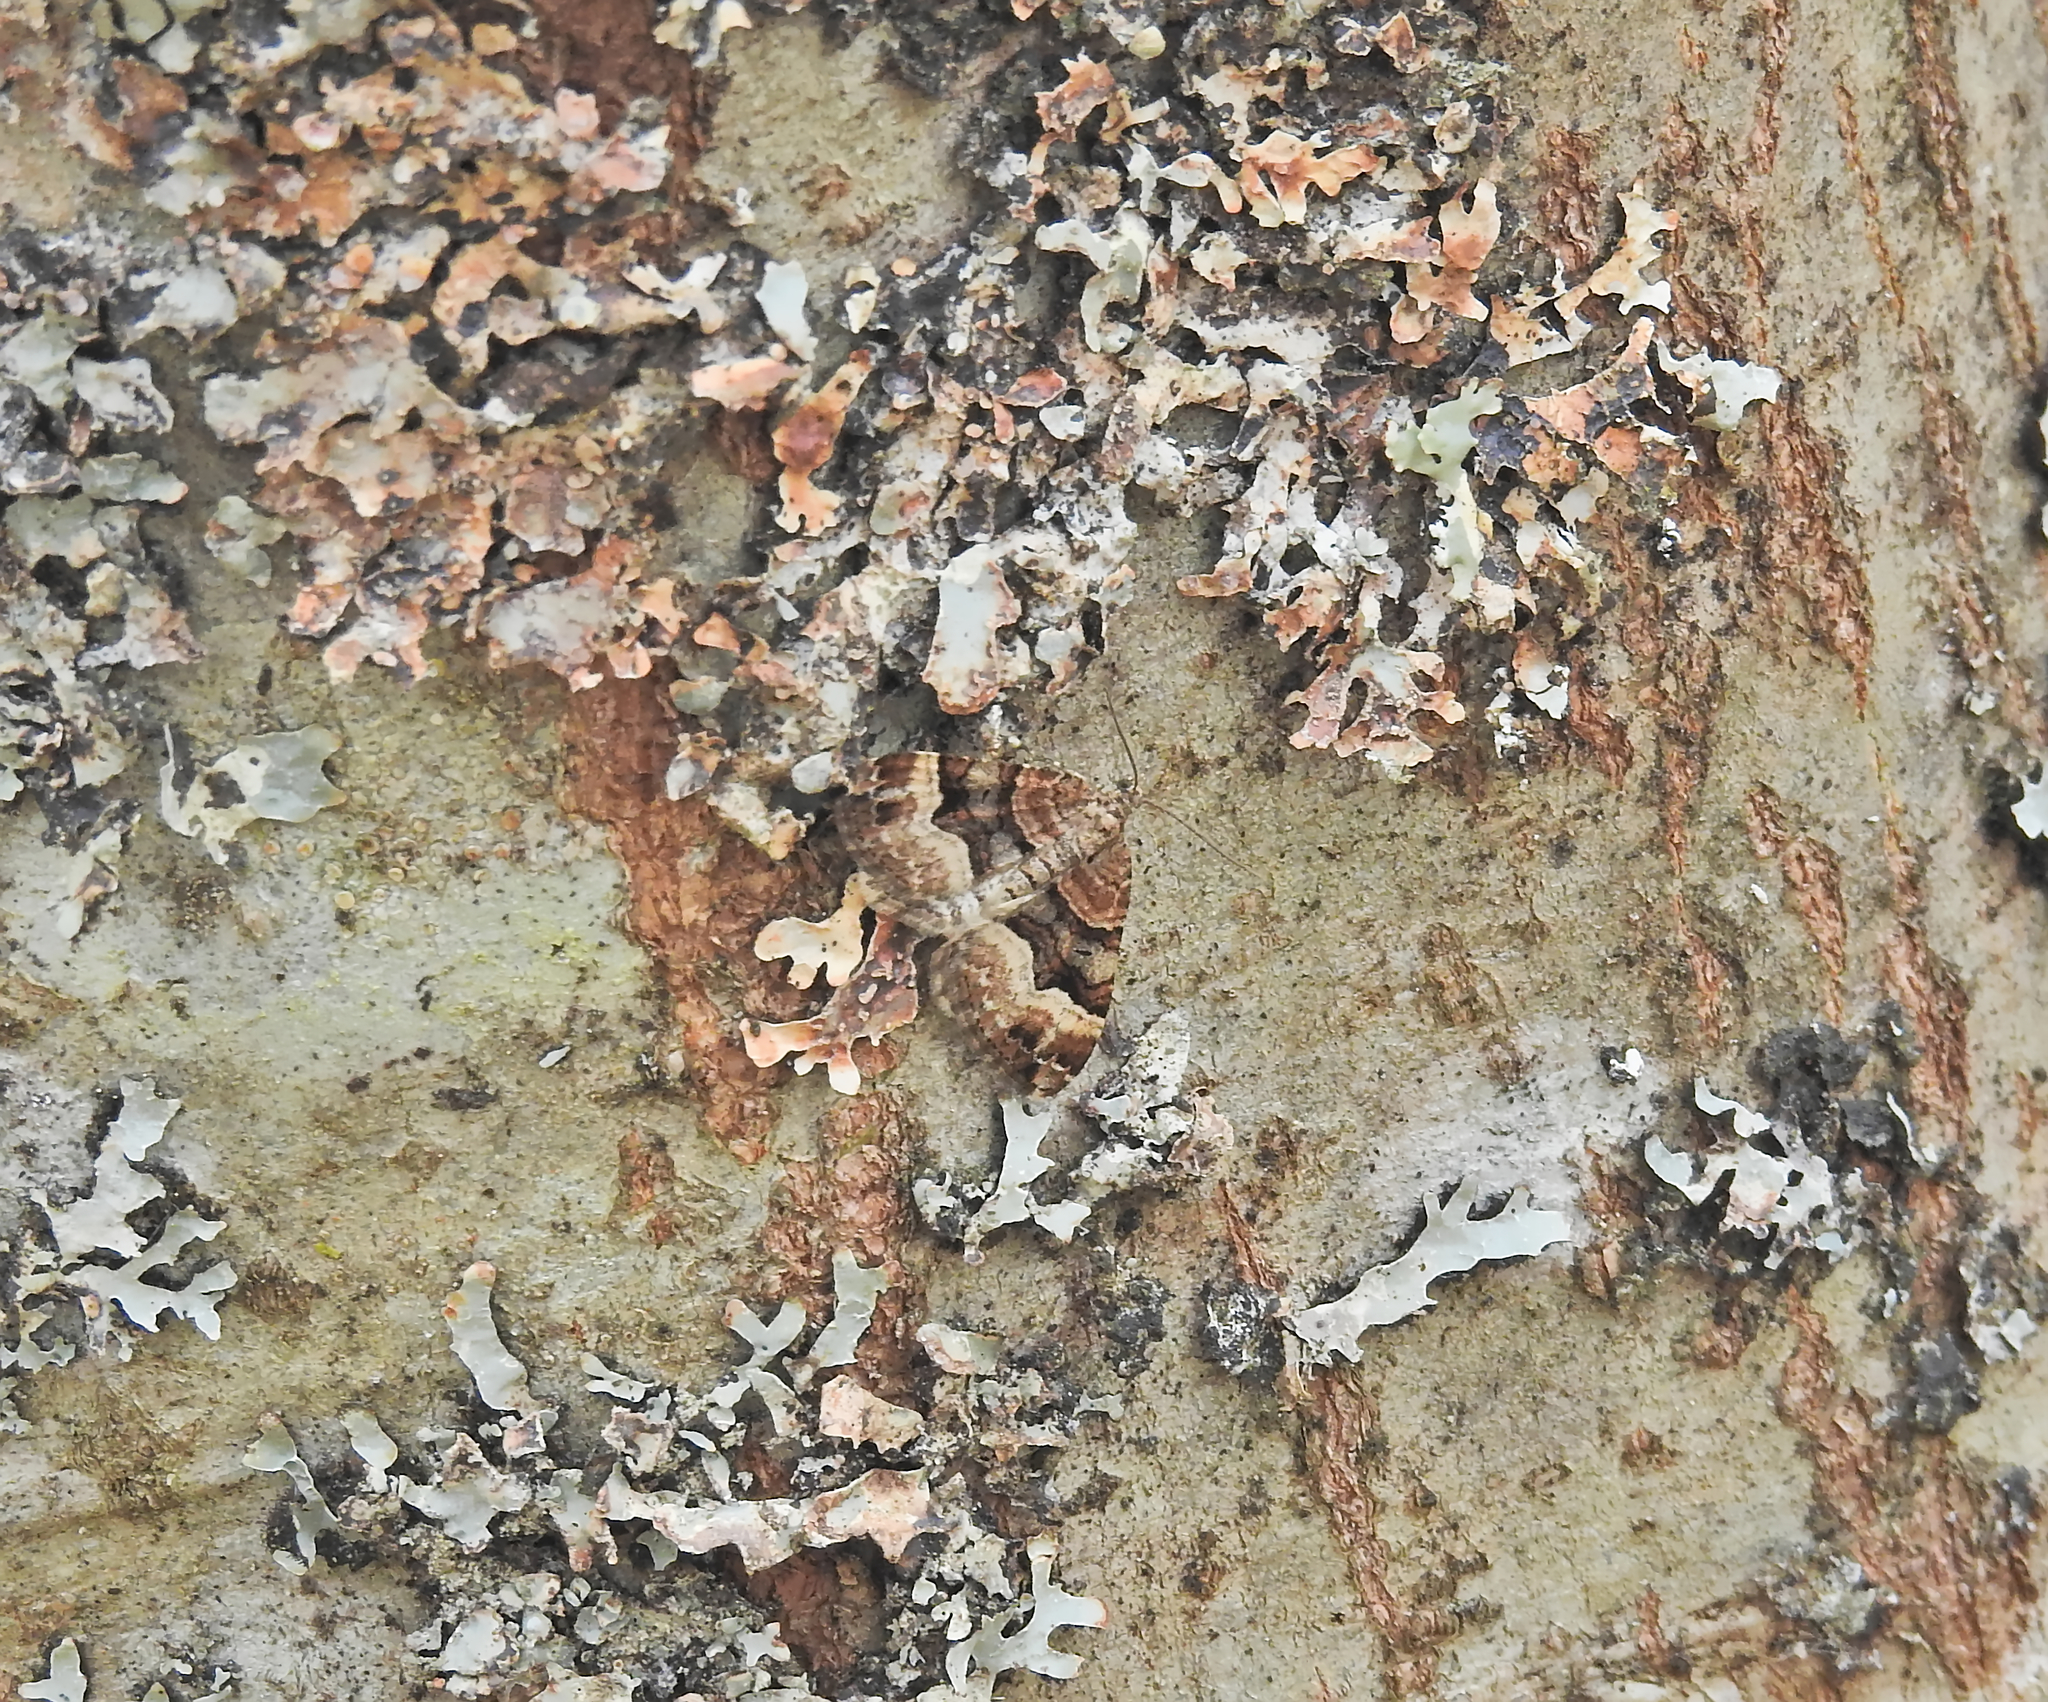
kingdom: Animalia
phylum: Arthropoda
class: Insecta
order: Lepidoptera
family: Geometridae
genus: Xanthorhoe
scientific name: Xanthorhoe biriviata
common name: Balsam carpet
